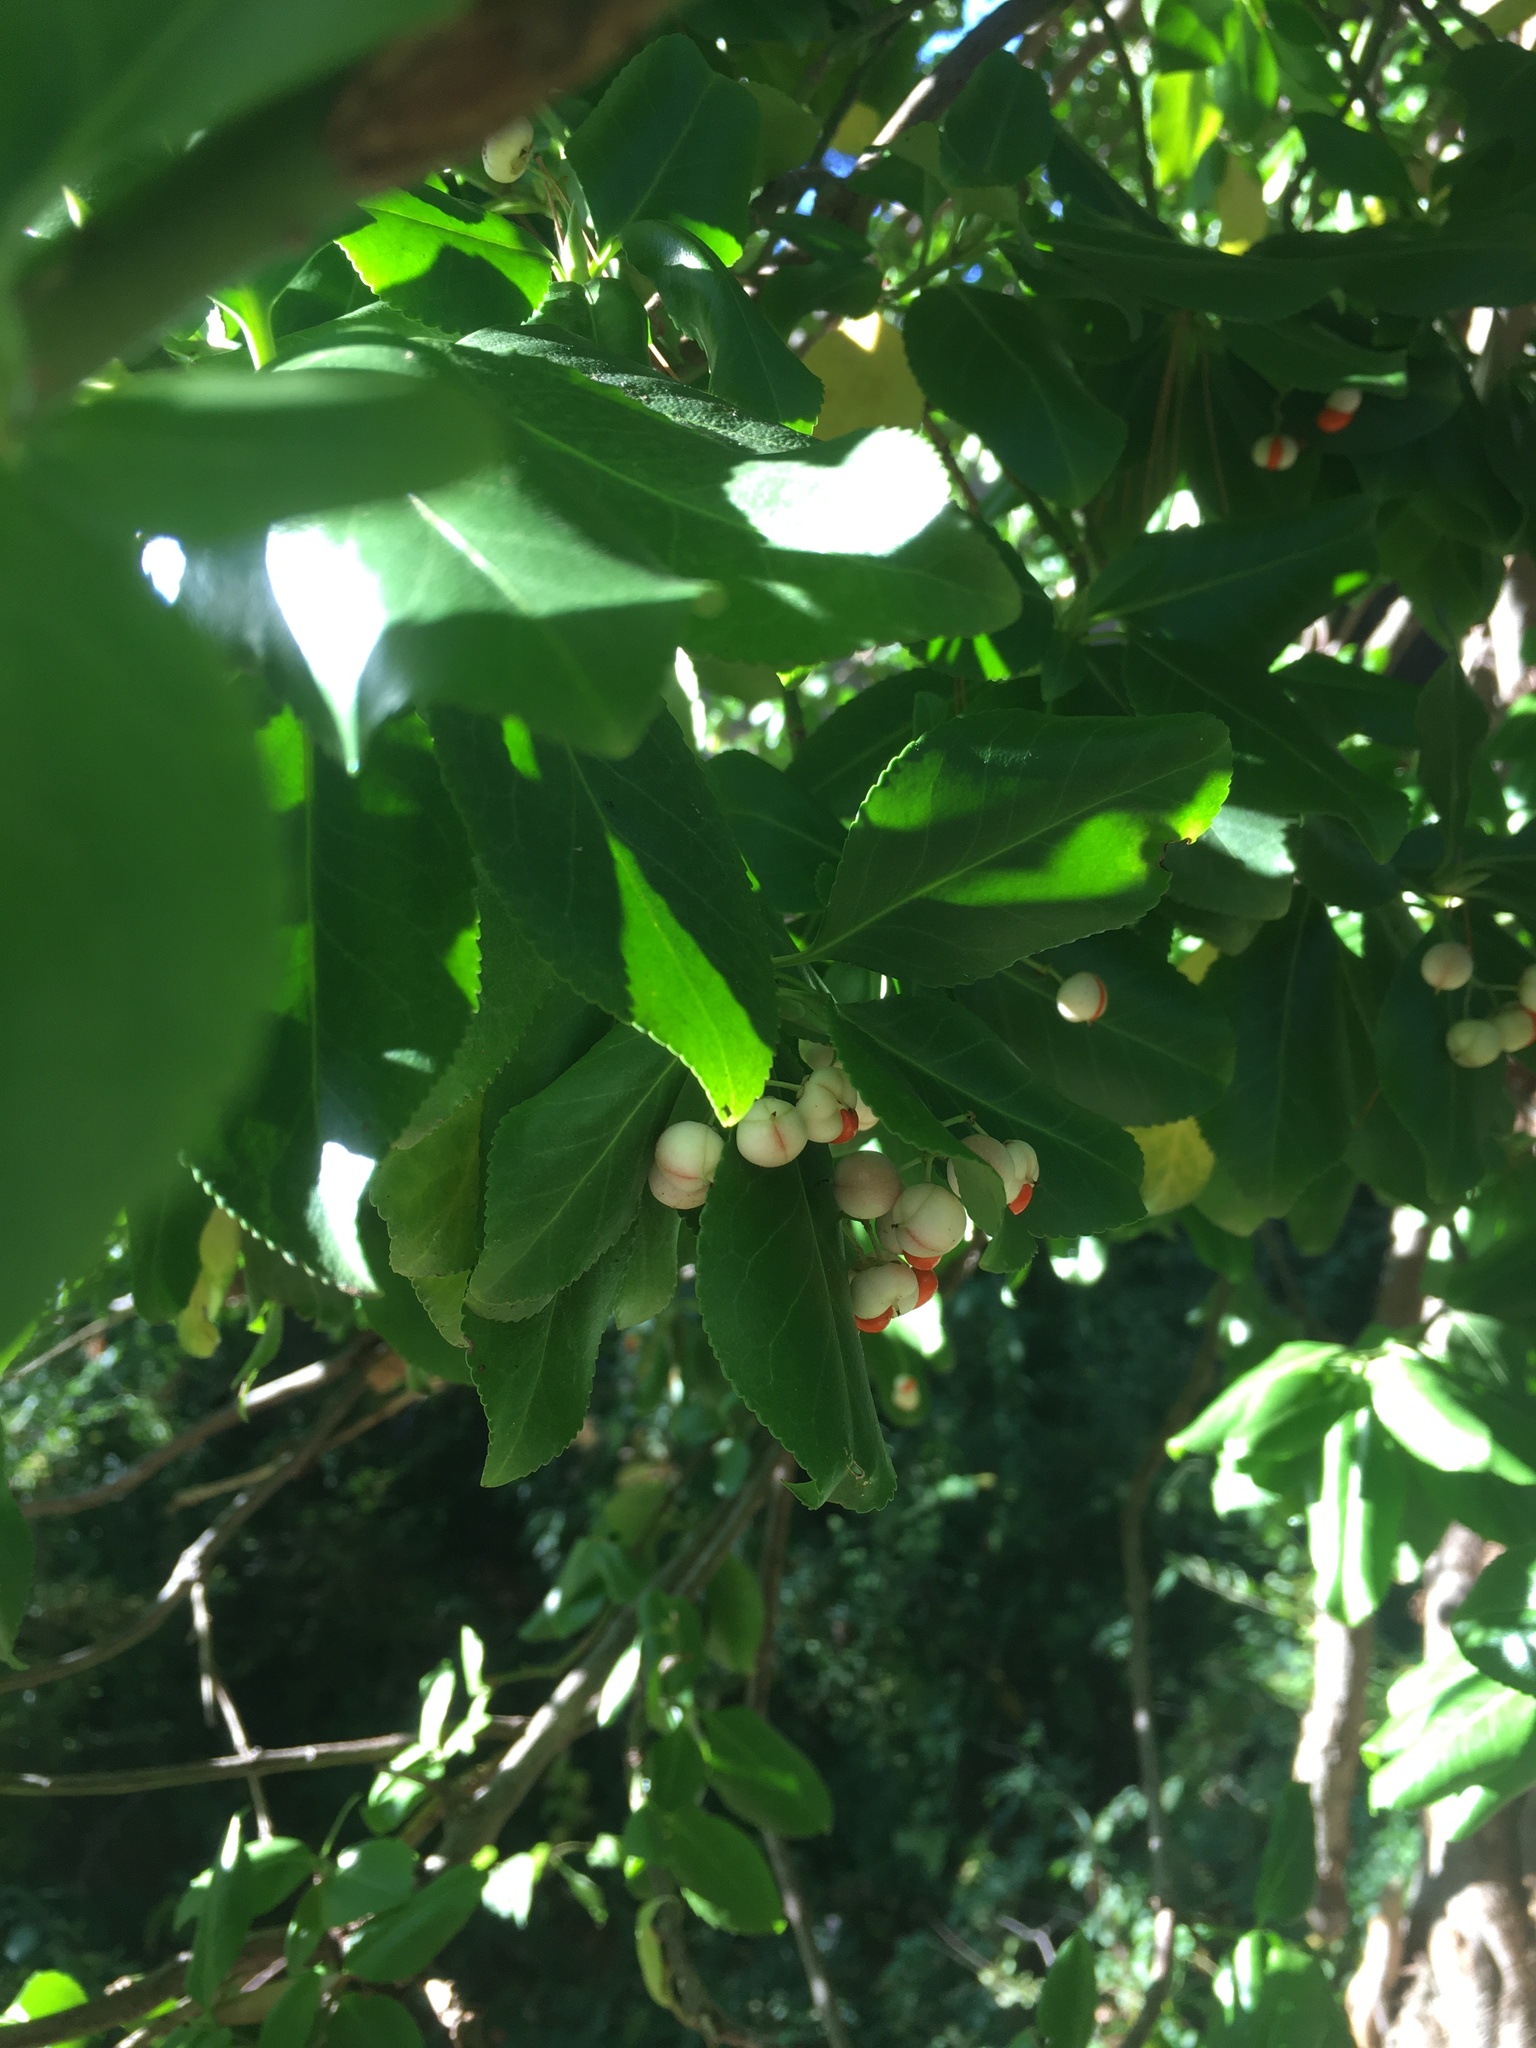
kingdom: Plantae
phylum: Tracheophyta
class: Magnoliopsida
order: Celastrales
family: Celastraceae
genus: Euonymus
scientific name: Euonymus fortunei
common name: Climbing euonymus
